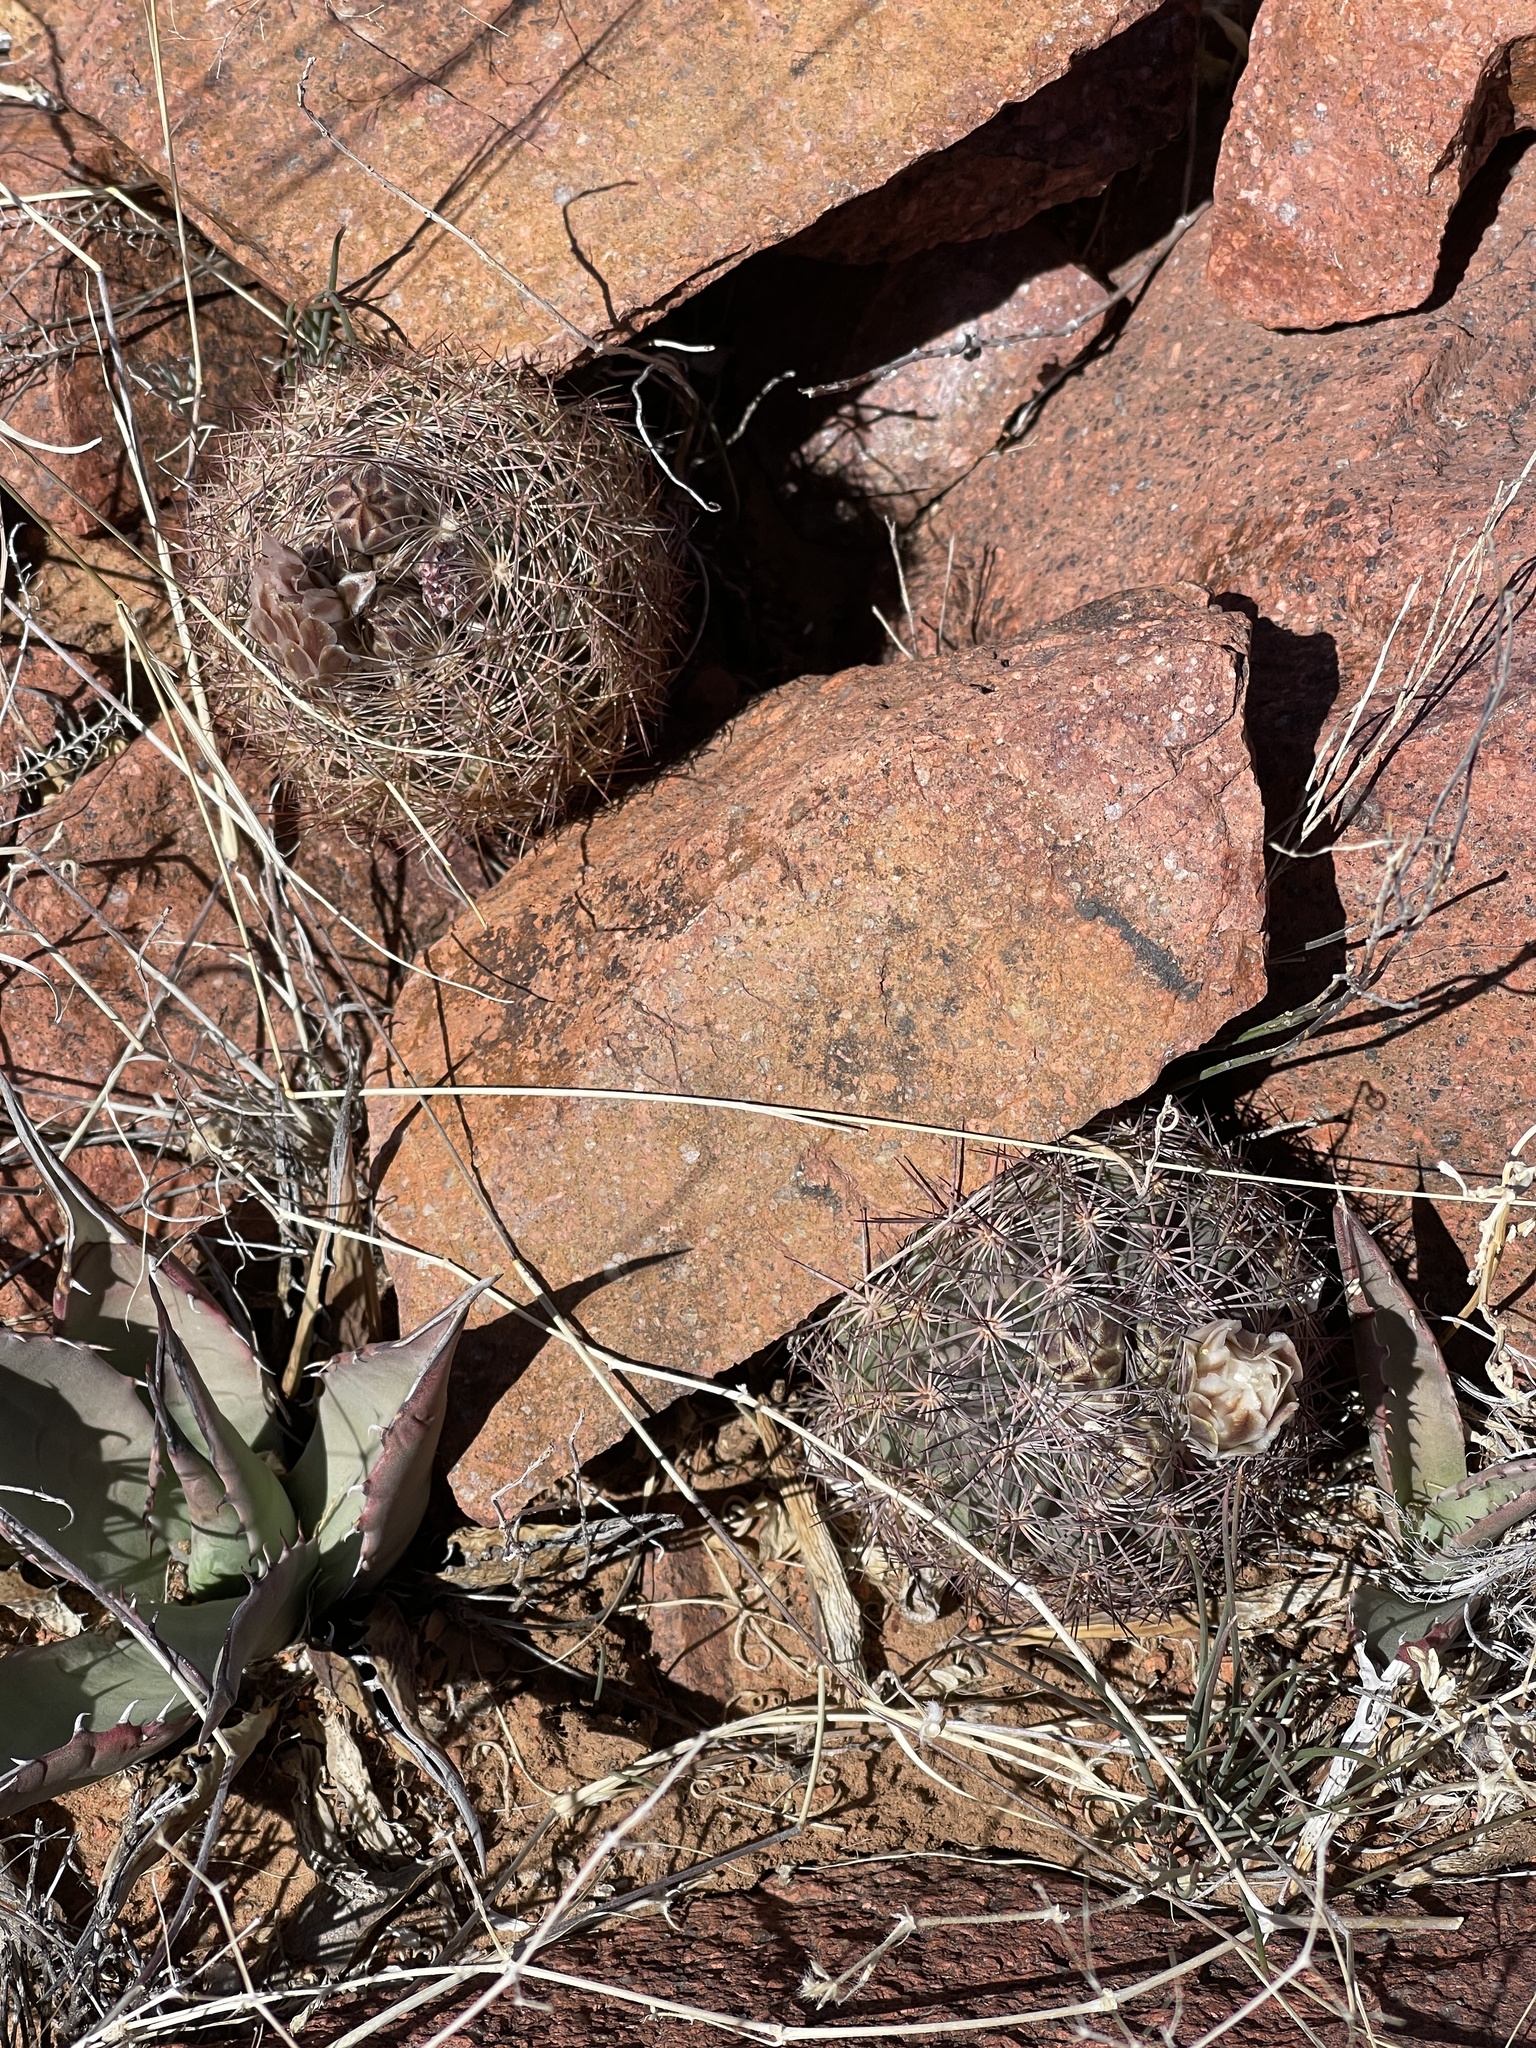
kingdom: Plantae
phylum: Tracheophyta
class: Magnoliopsida
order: Caryophyllales
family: Cactaceae
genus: Sclerocactus
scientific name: Sclerocactus intertextus
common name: White fish-hook cactus
